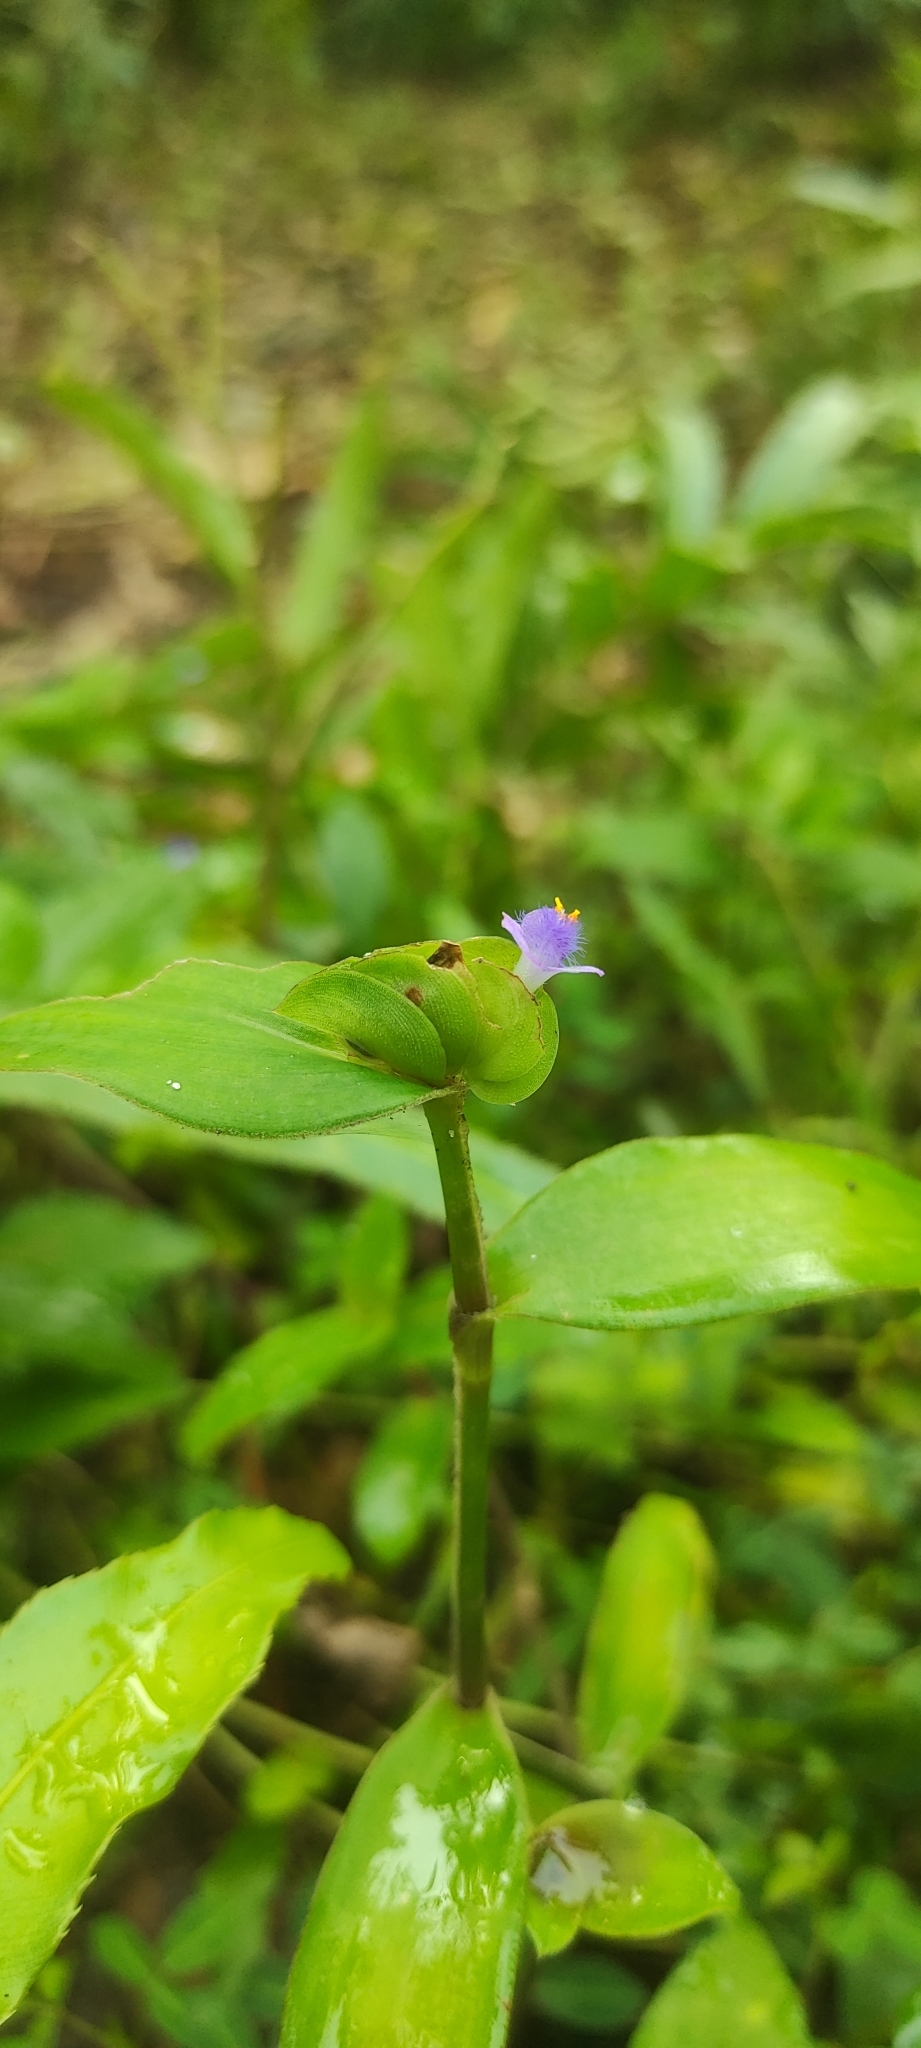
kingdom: Plantae
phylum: Tracheophyta
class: Liliopsida
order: Commelinales
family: Commelinaceae
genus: Cyanotis
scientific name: Cyanotis cristata
